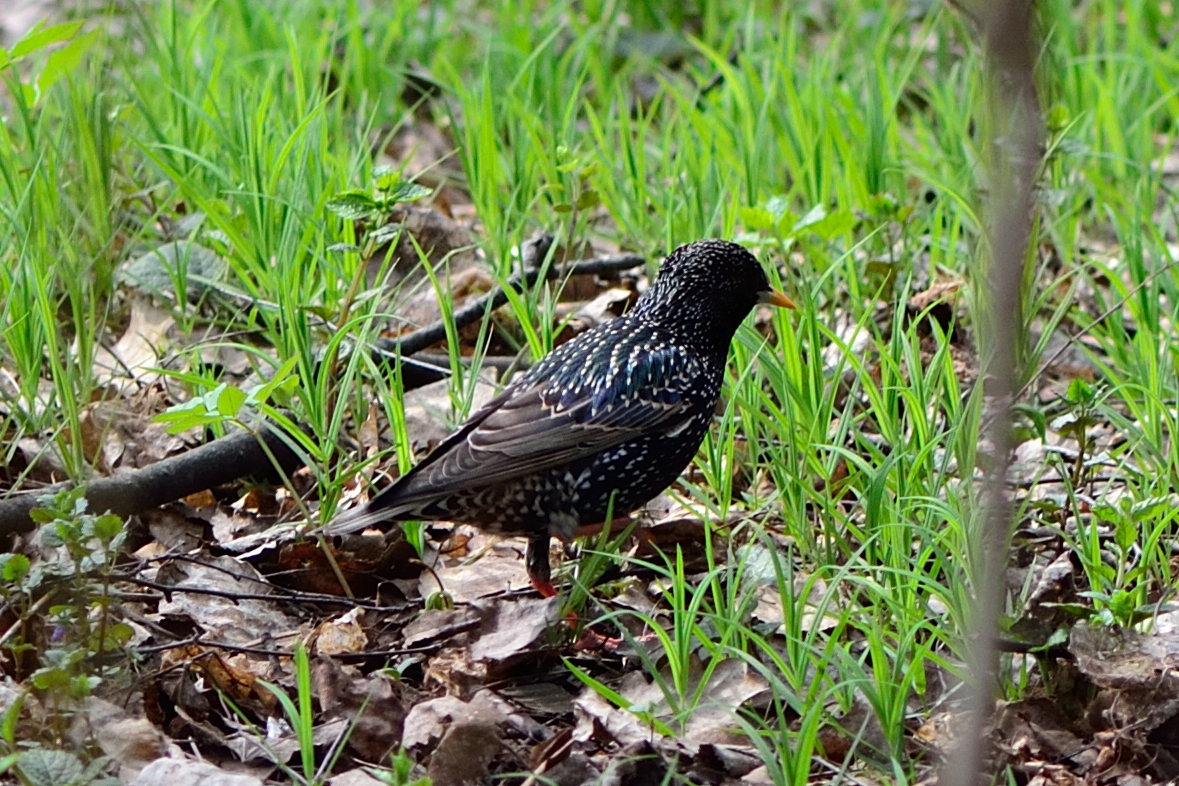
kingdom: Animalia
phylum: Chordata
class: Aves
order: Passeriformes
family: Sturnidae
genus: Sturnus
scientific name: Sturnus vulgaris
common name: Common starling
